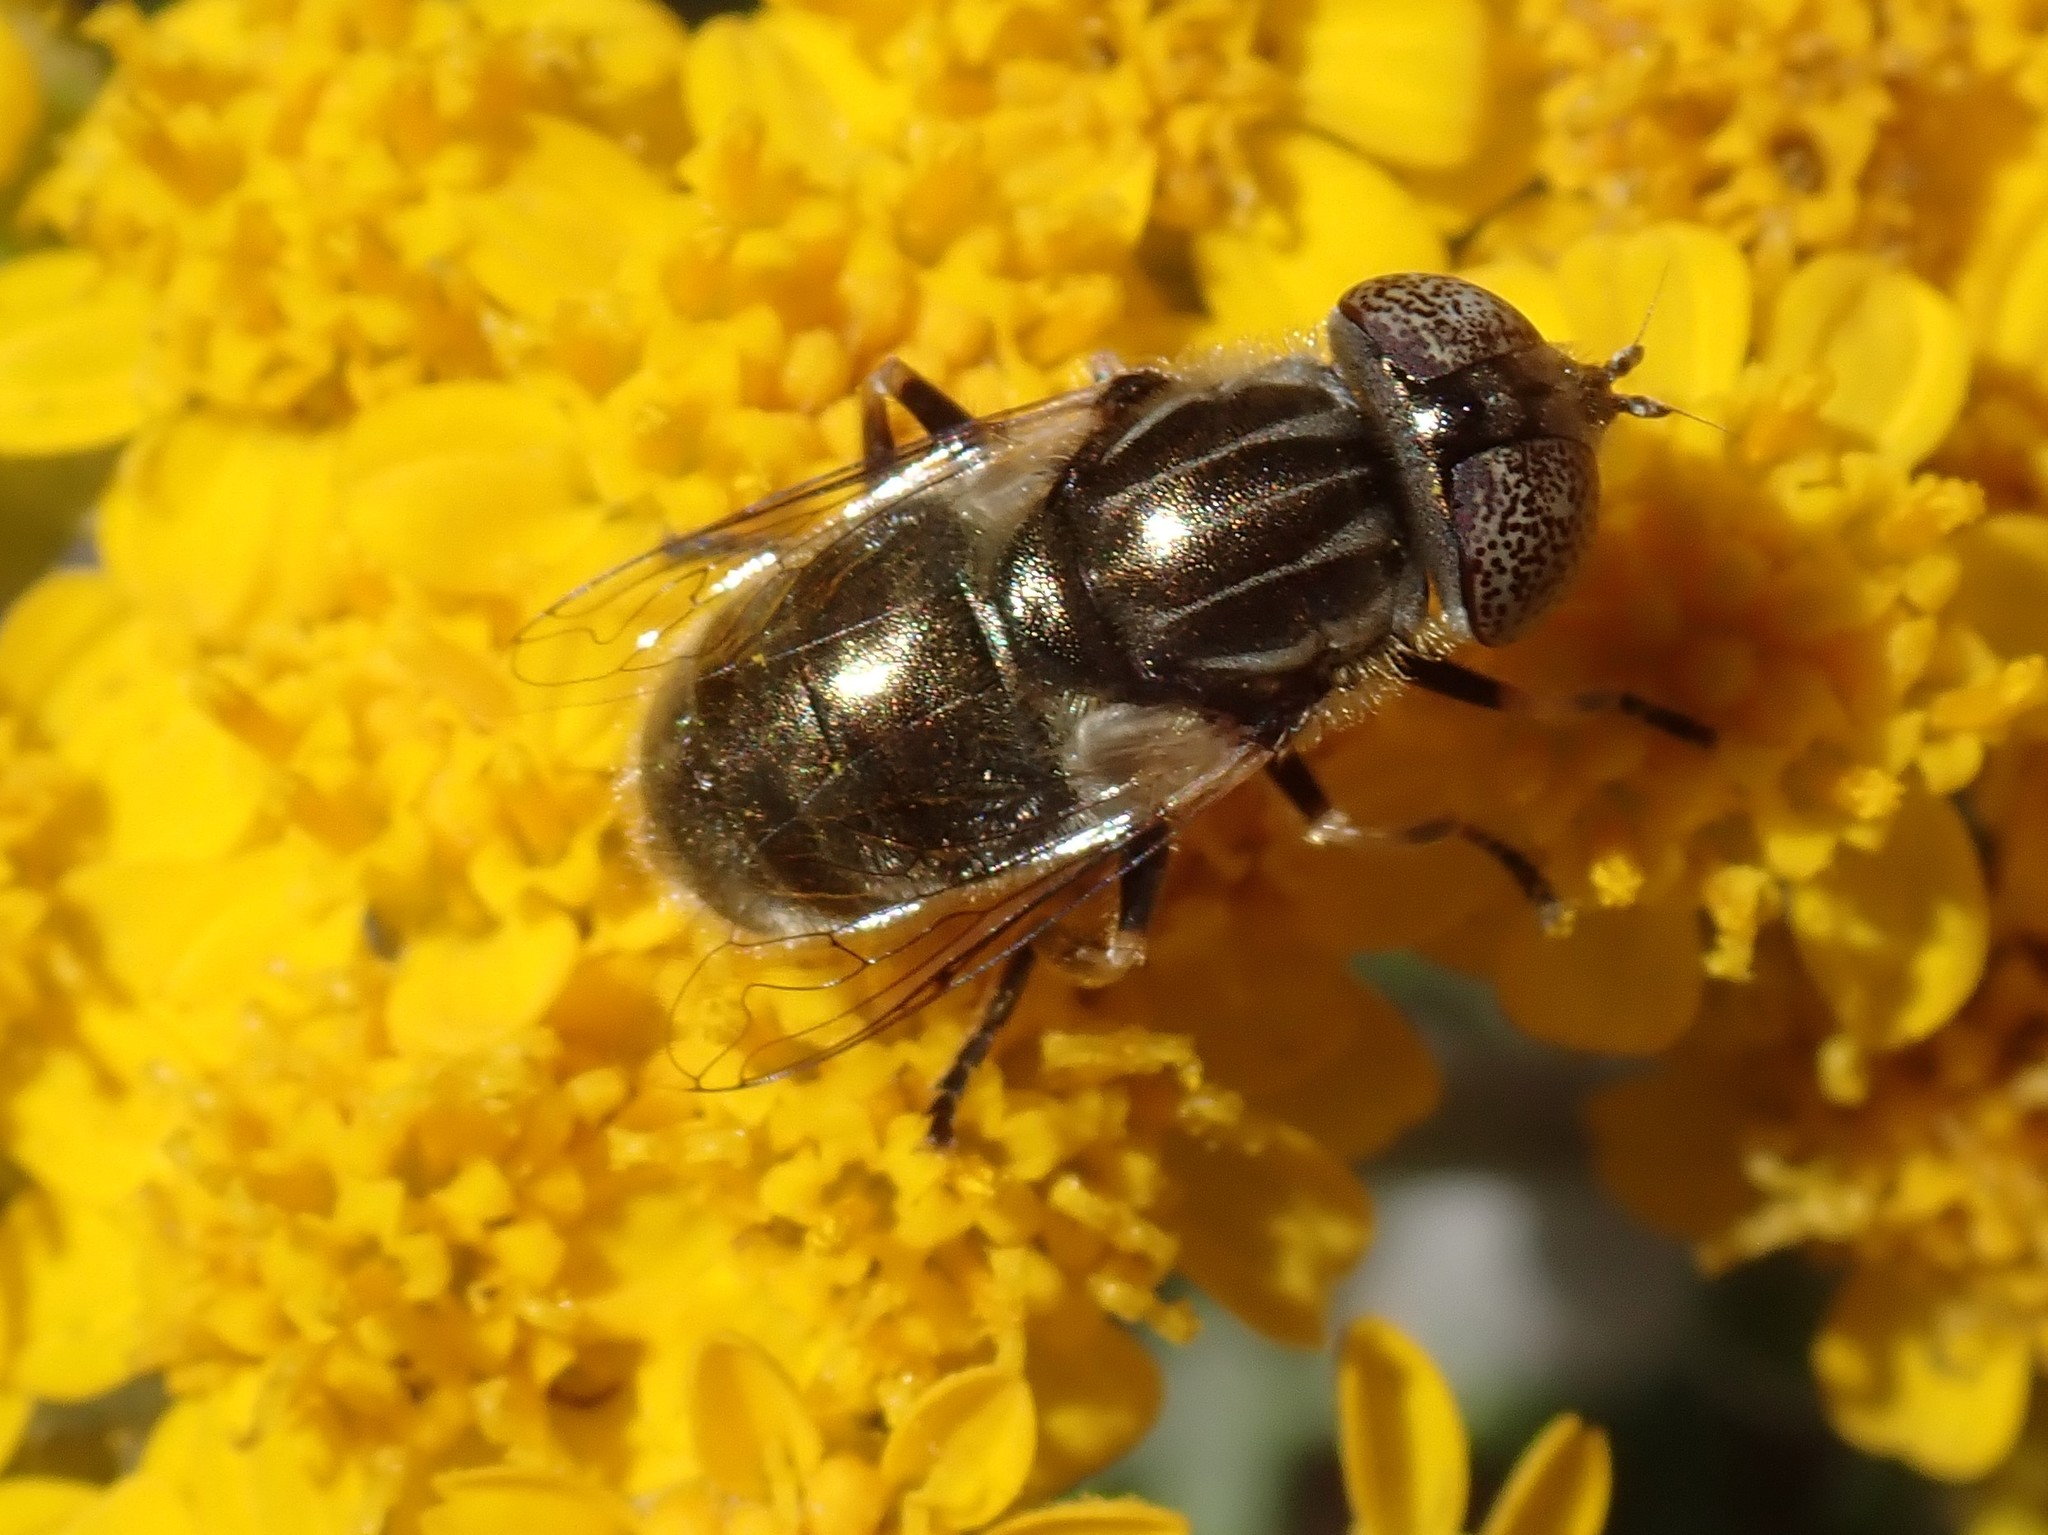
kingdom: Animalia
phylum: Arthropoda
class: Insecta
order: Diptera
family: Syrphidae
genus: Eristalinus
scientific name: Eristalinus aeneus
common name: Syrphid fly
